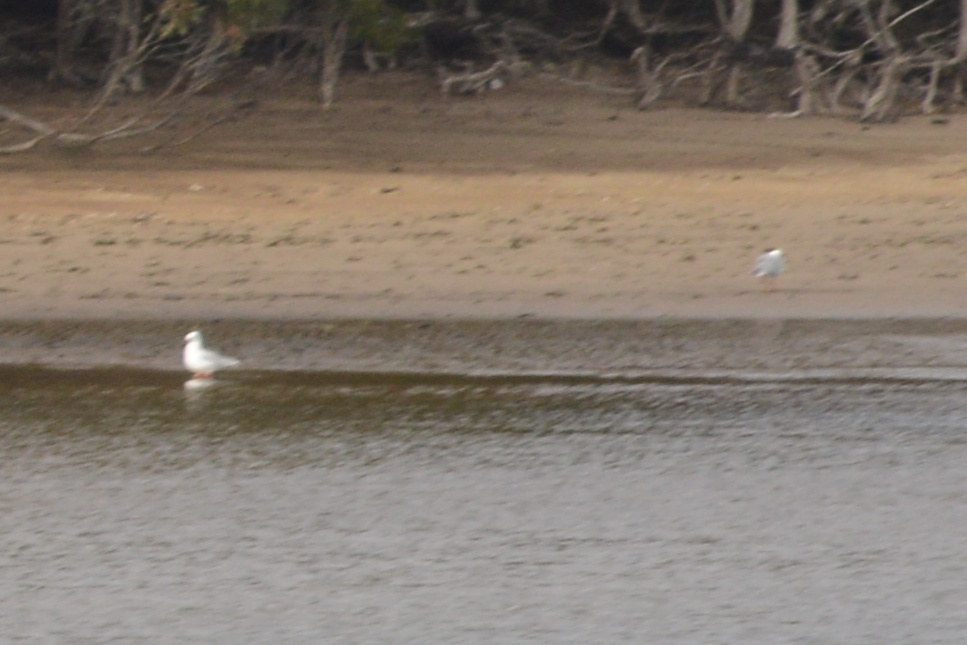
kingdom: Animalia
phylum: Chordata
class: Aves
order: Charadriiformes
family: Laridae
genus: Chroicocephalus
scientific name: Chroicocephalus novaehollandiae
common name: Silver gull
